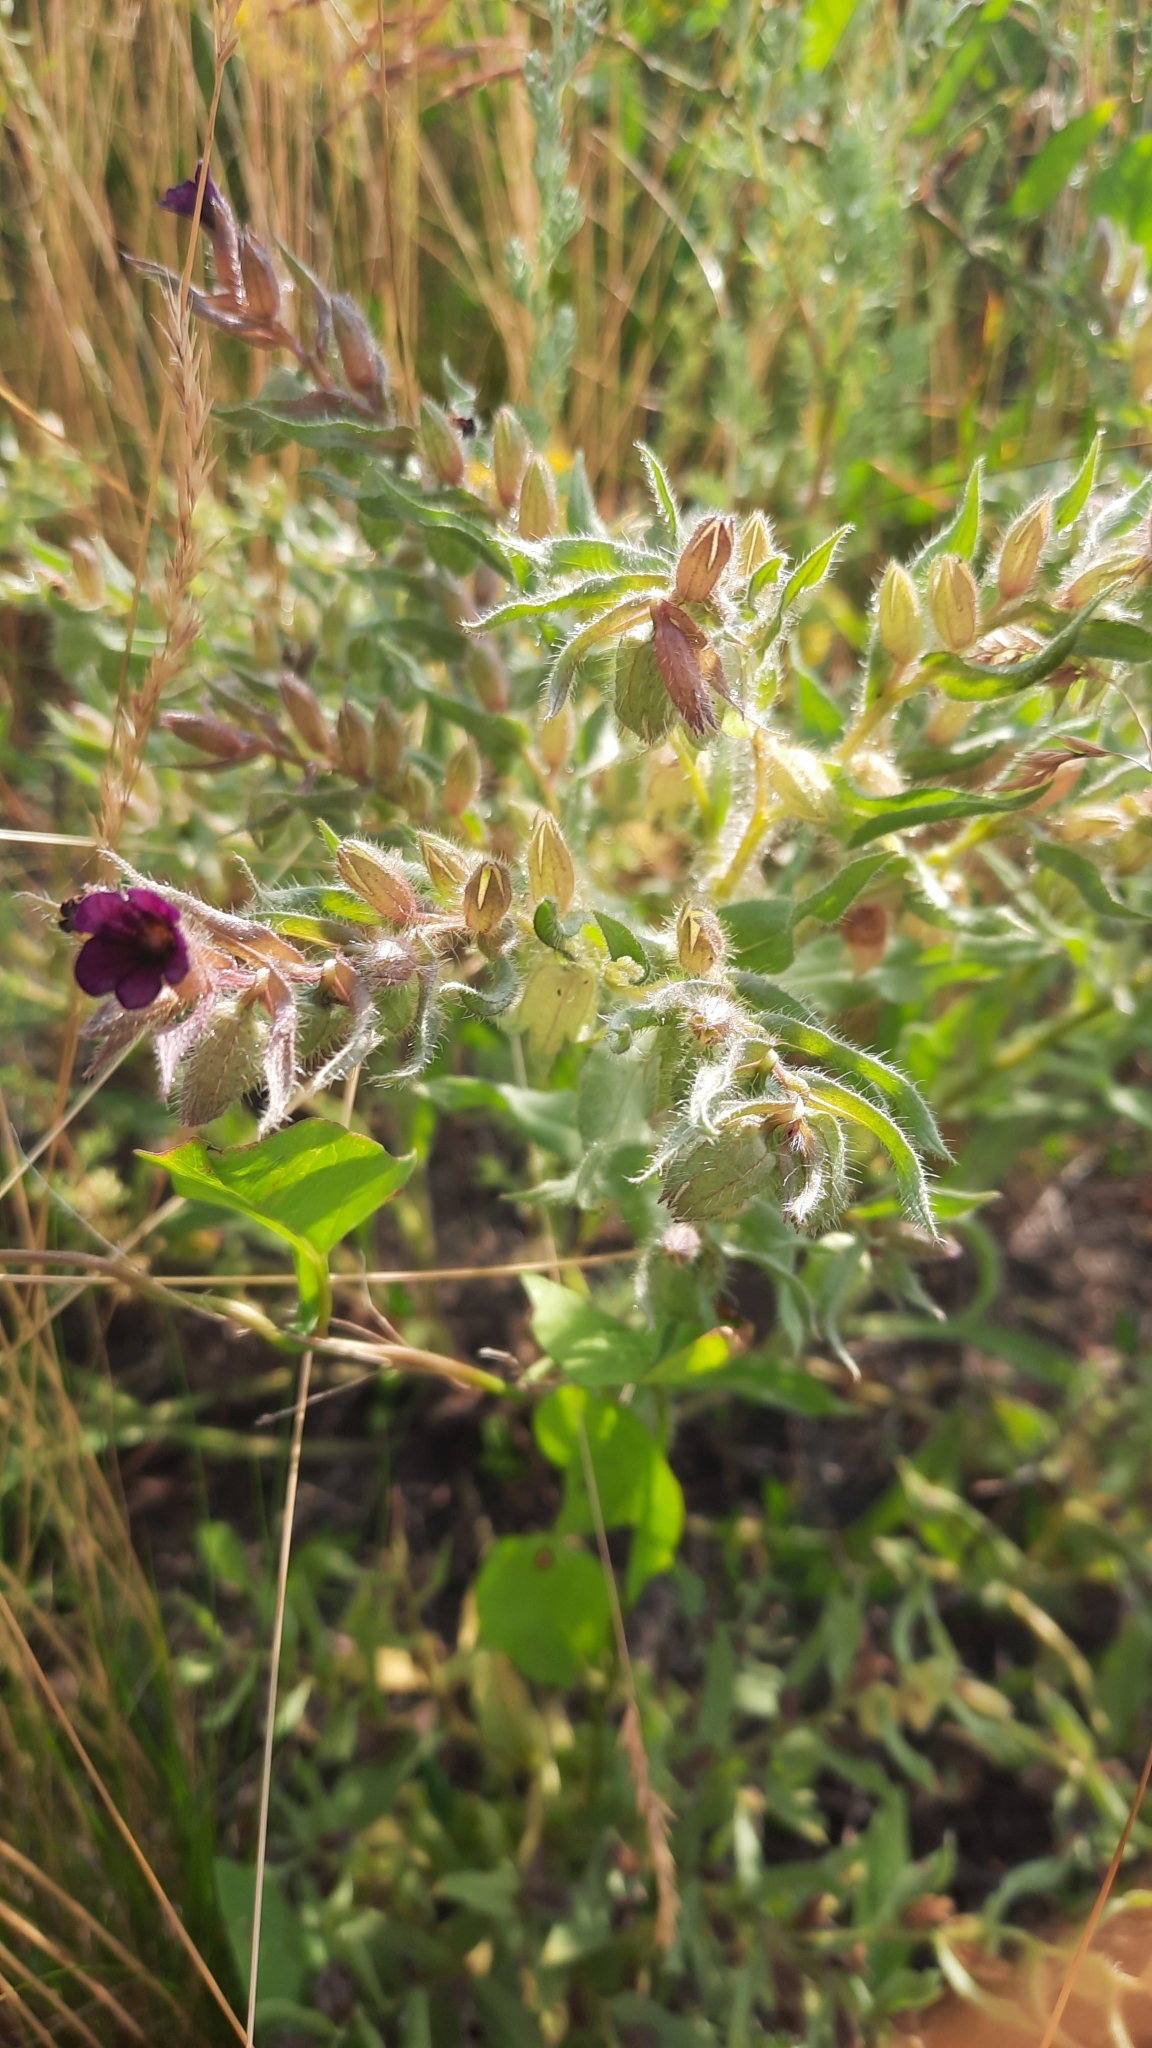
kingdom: Plantae
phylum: Tracheophyta
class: Magnoliopsida
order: Boraginales
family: Boraginaceae
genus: Nonea
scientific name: Nonea pulla
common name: Brown nonea
